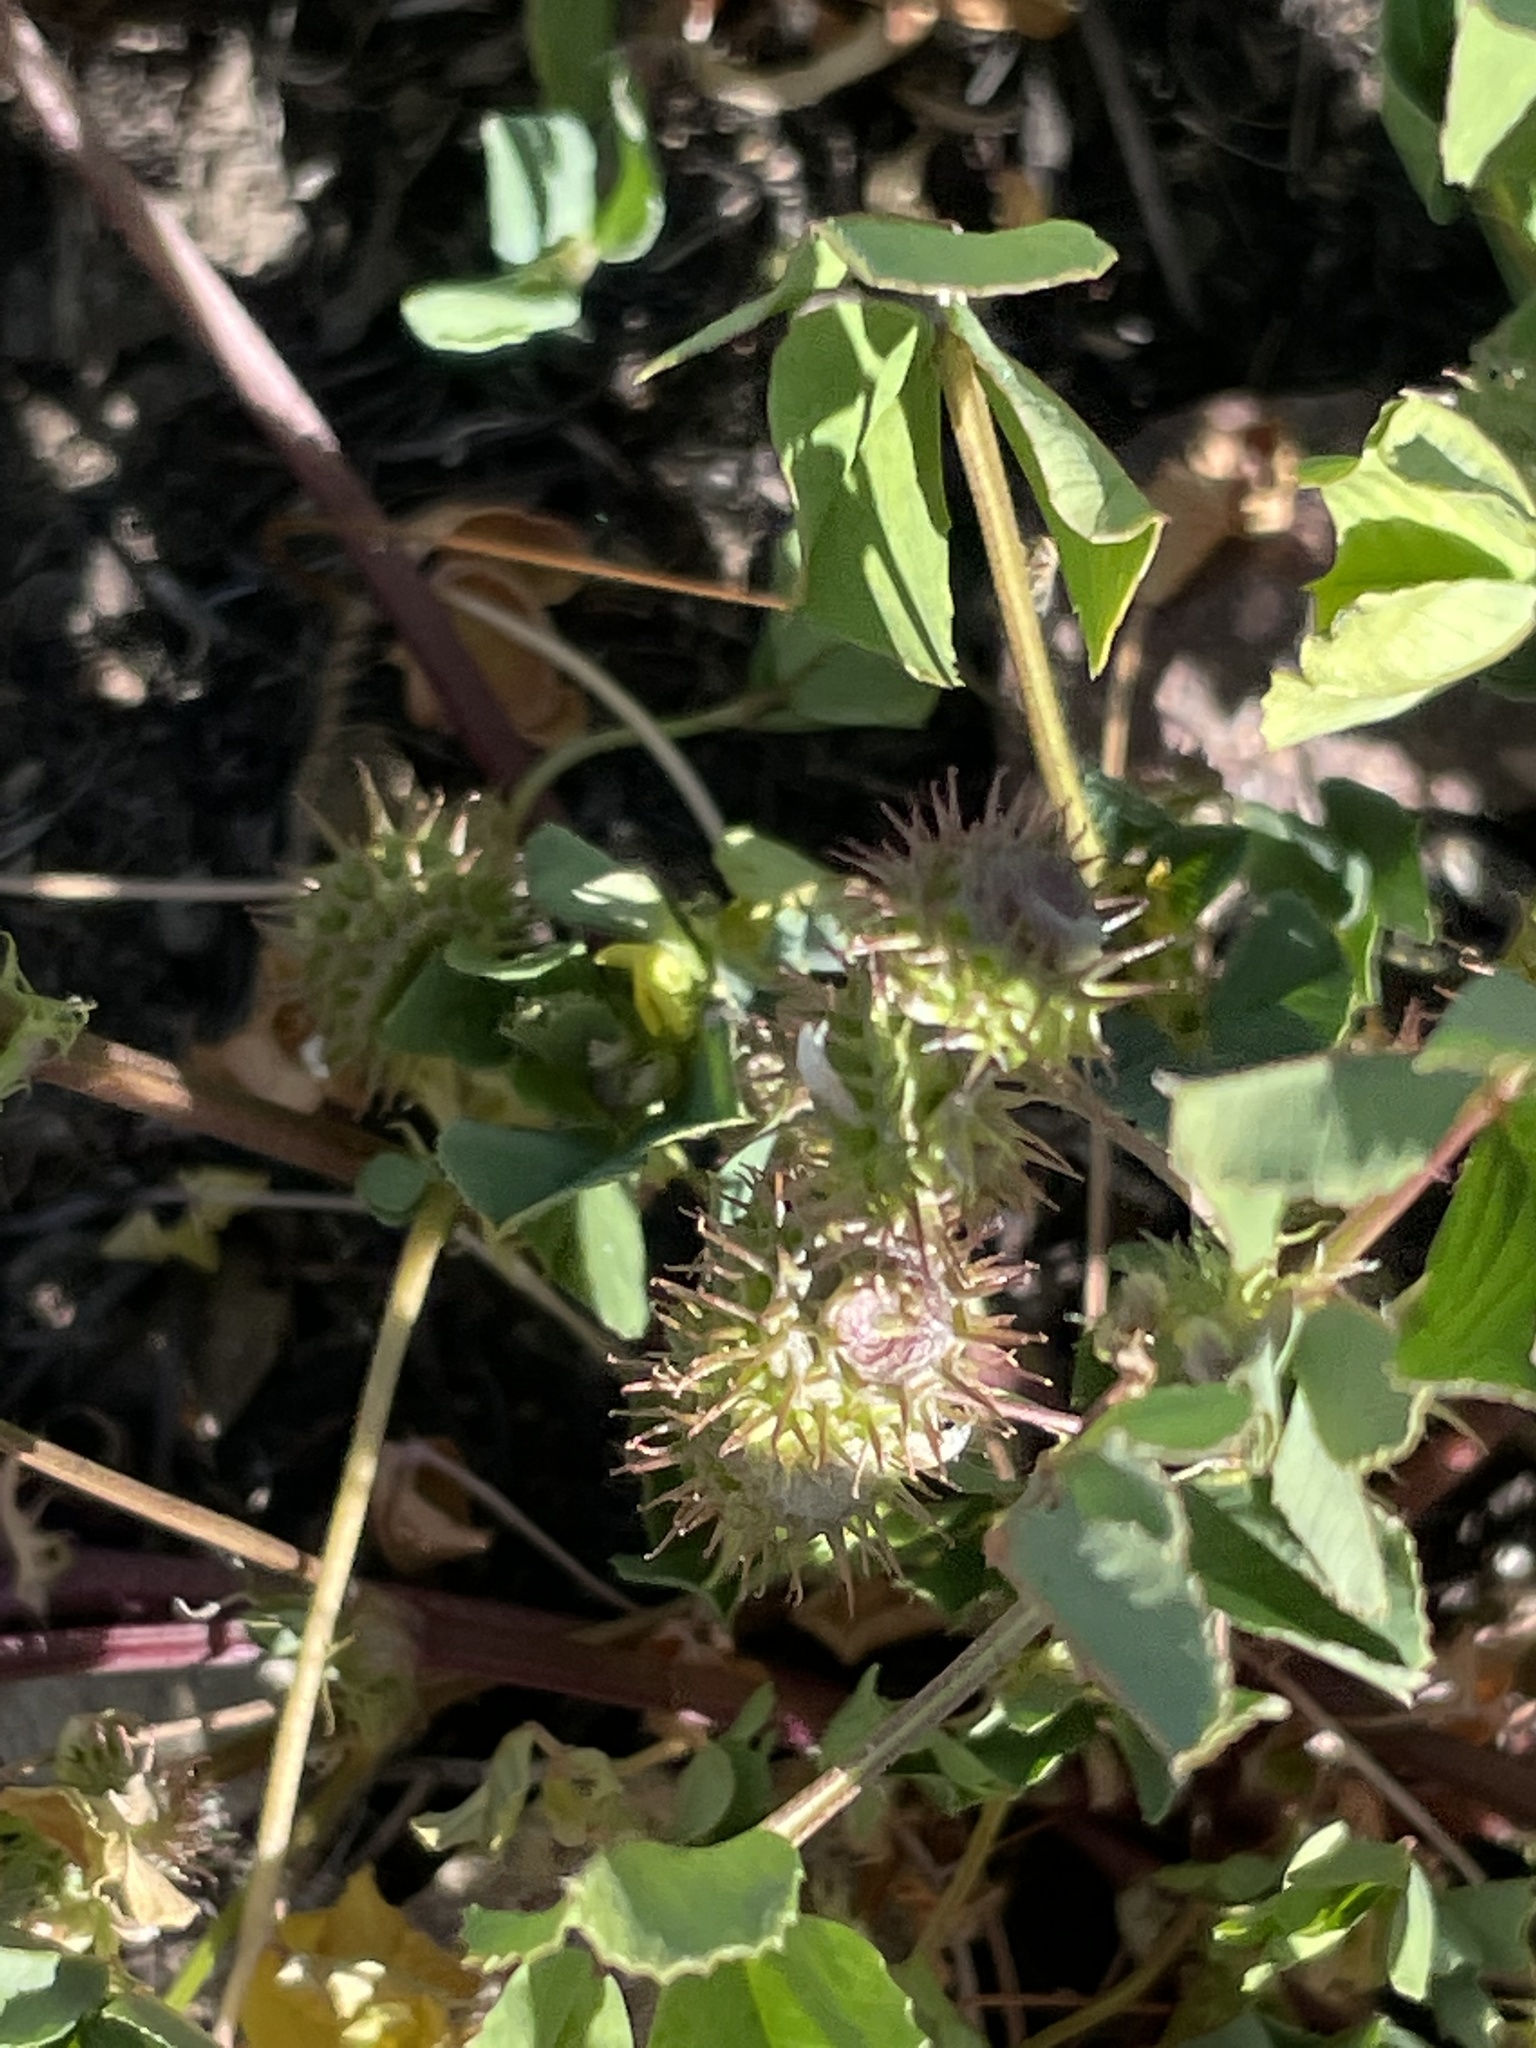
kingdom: Plantae
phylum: Tracheophyta
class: Magnoliopsida
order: Fabales
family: Fabaceae
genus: Medicago
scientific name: Medicago polymorpha
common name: Burclover
